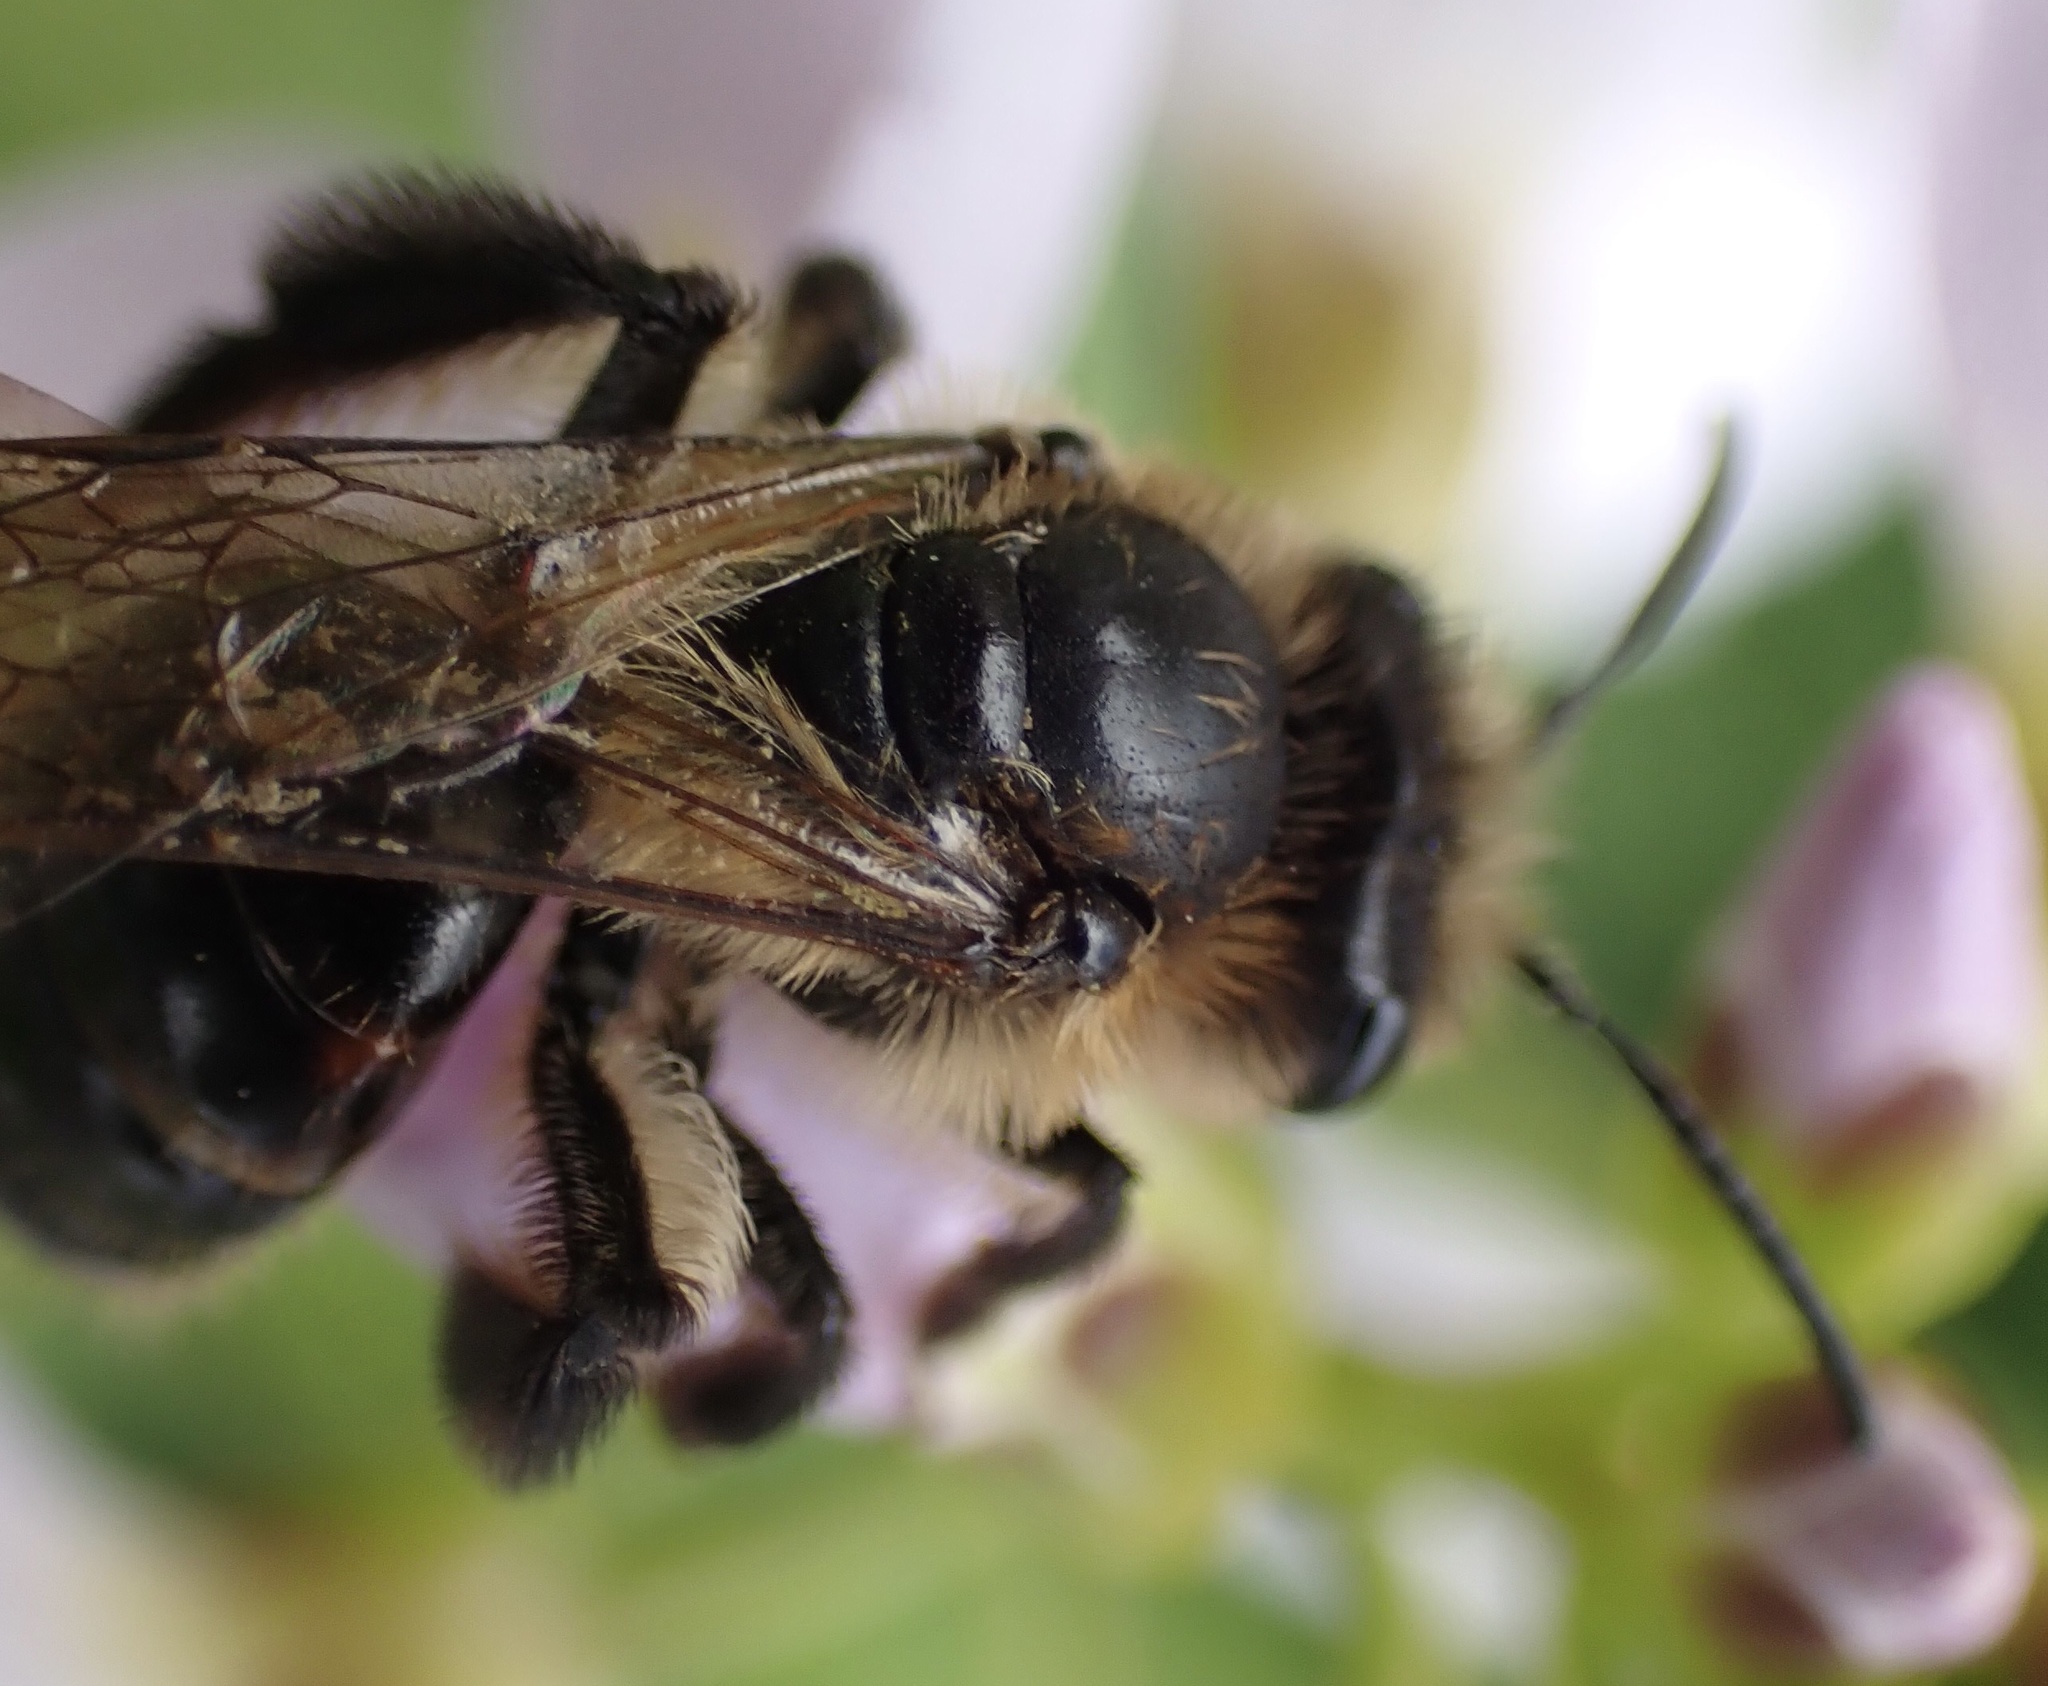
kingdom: Animalia
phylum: Arthropoda
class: Insecta
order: Hymenoptera
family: Andrenidae
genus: Andrena
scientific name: Andrena rosae
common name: Perkin's mining bee
